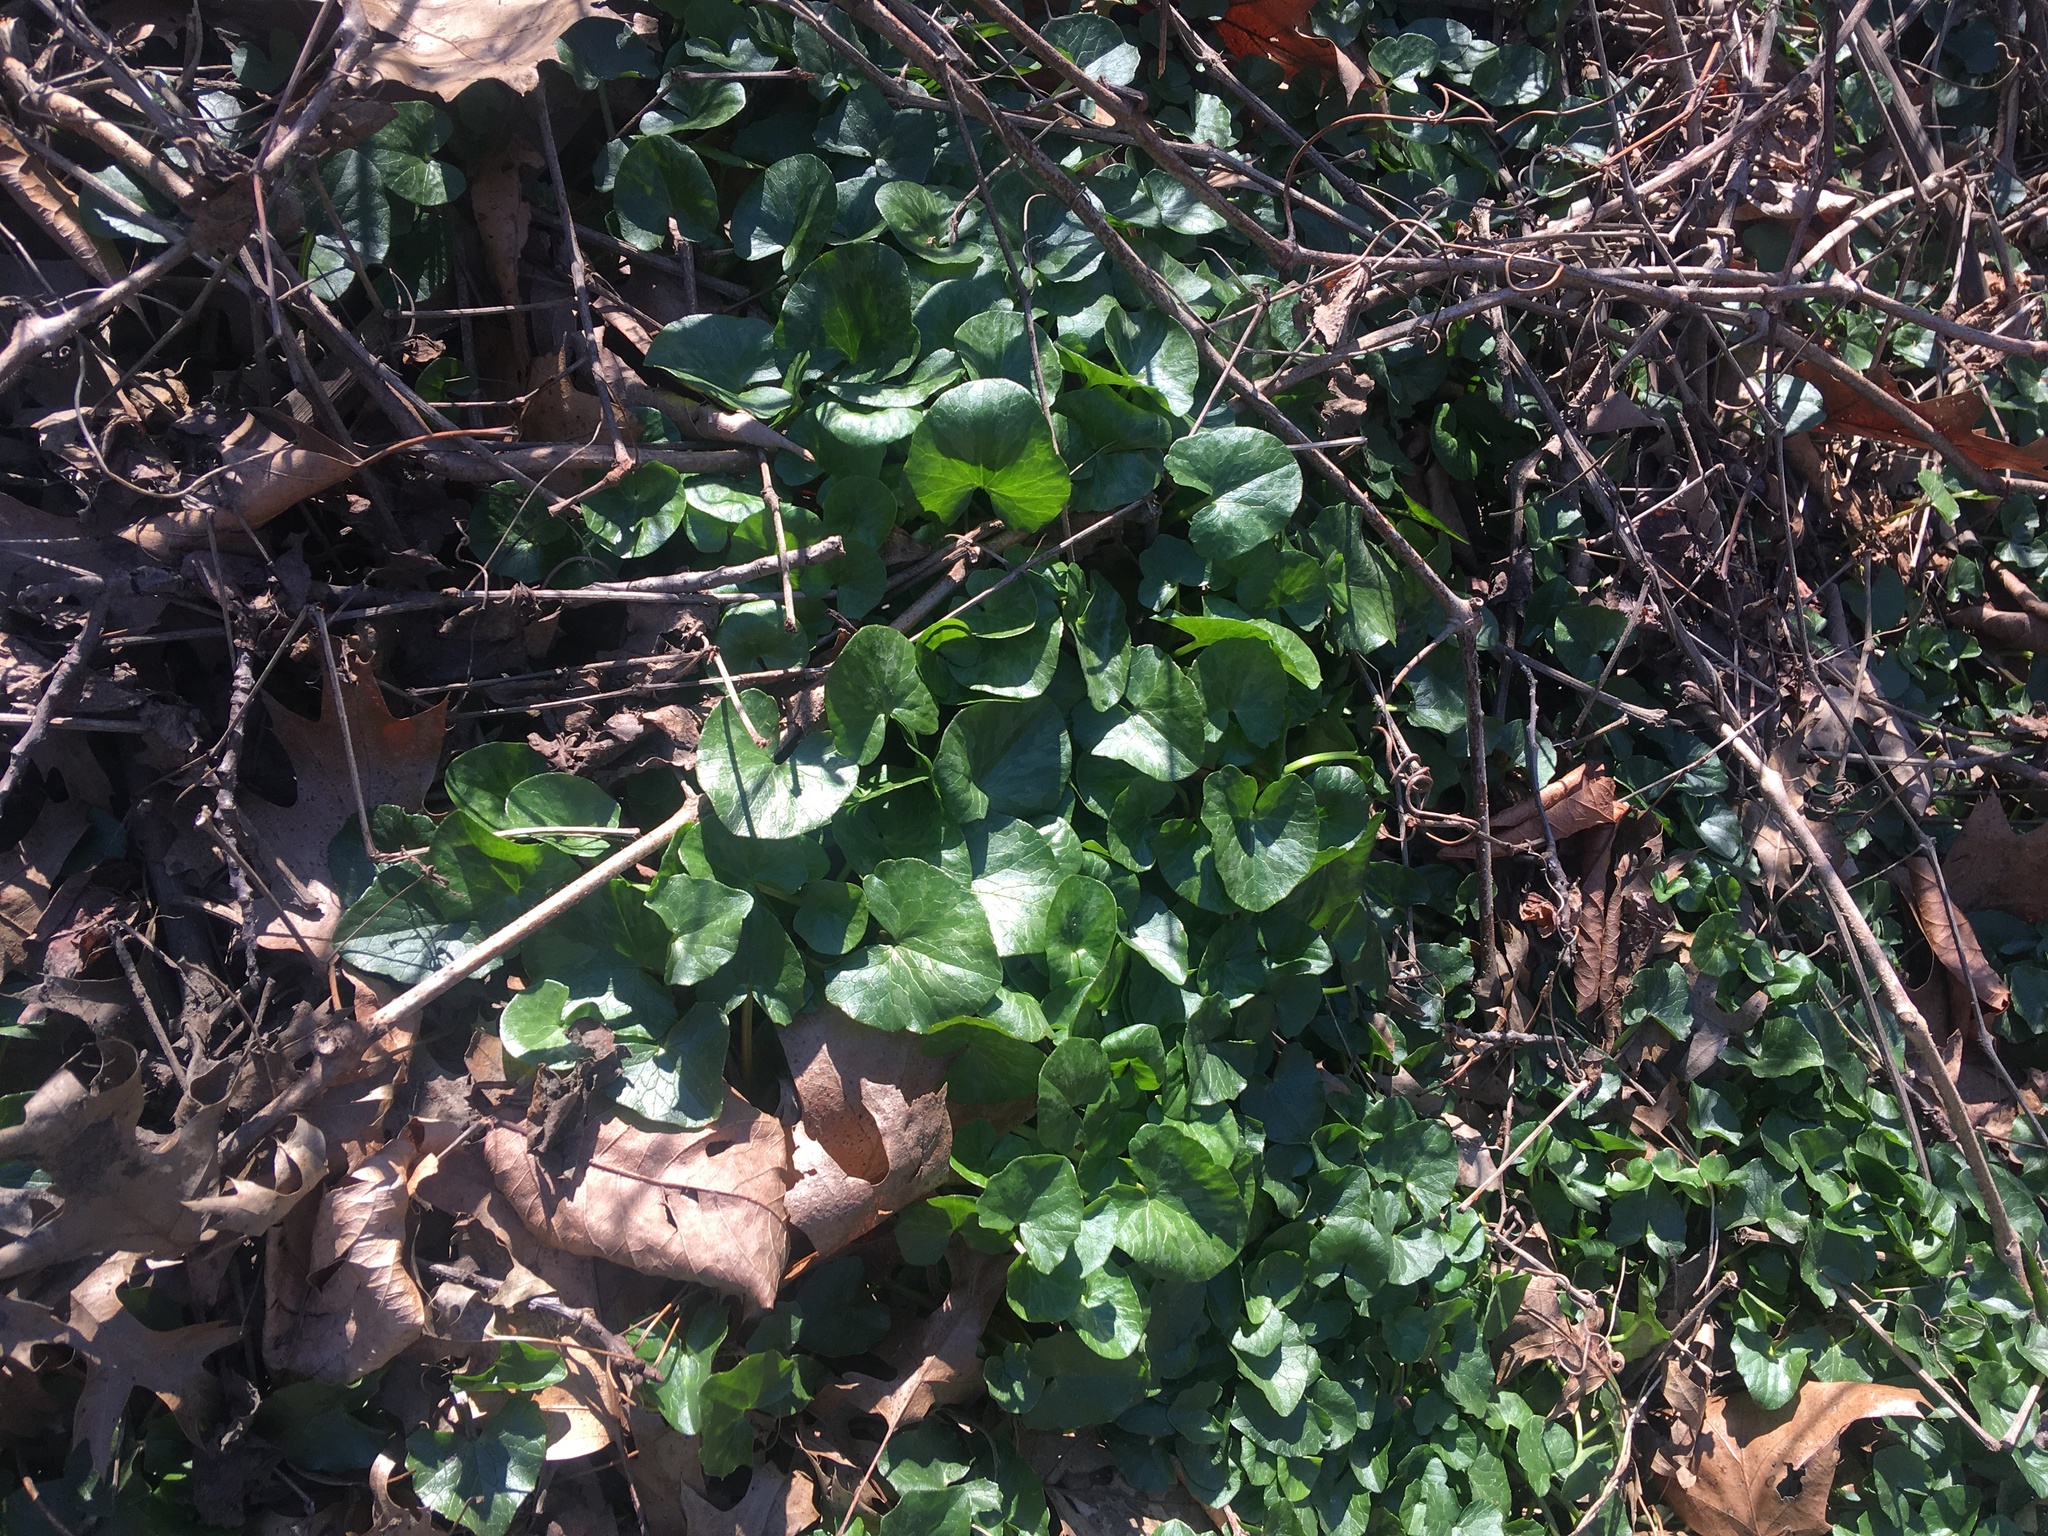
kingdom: Plantae
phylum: Tracheophyta
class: Magnoliopsida
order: Ranunculales
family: Ranunculaceae
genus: Ficaria
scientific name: Ficaria verna
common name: Lesser celandine
